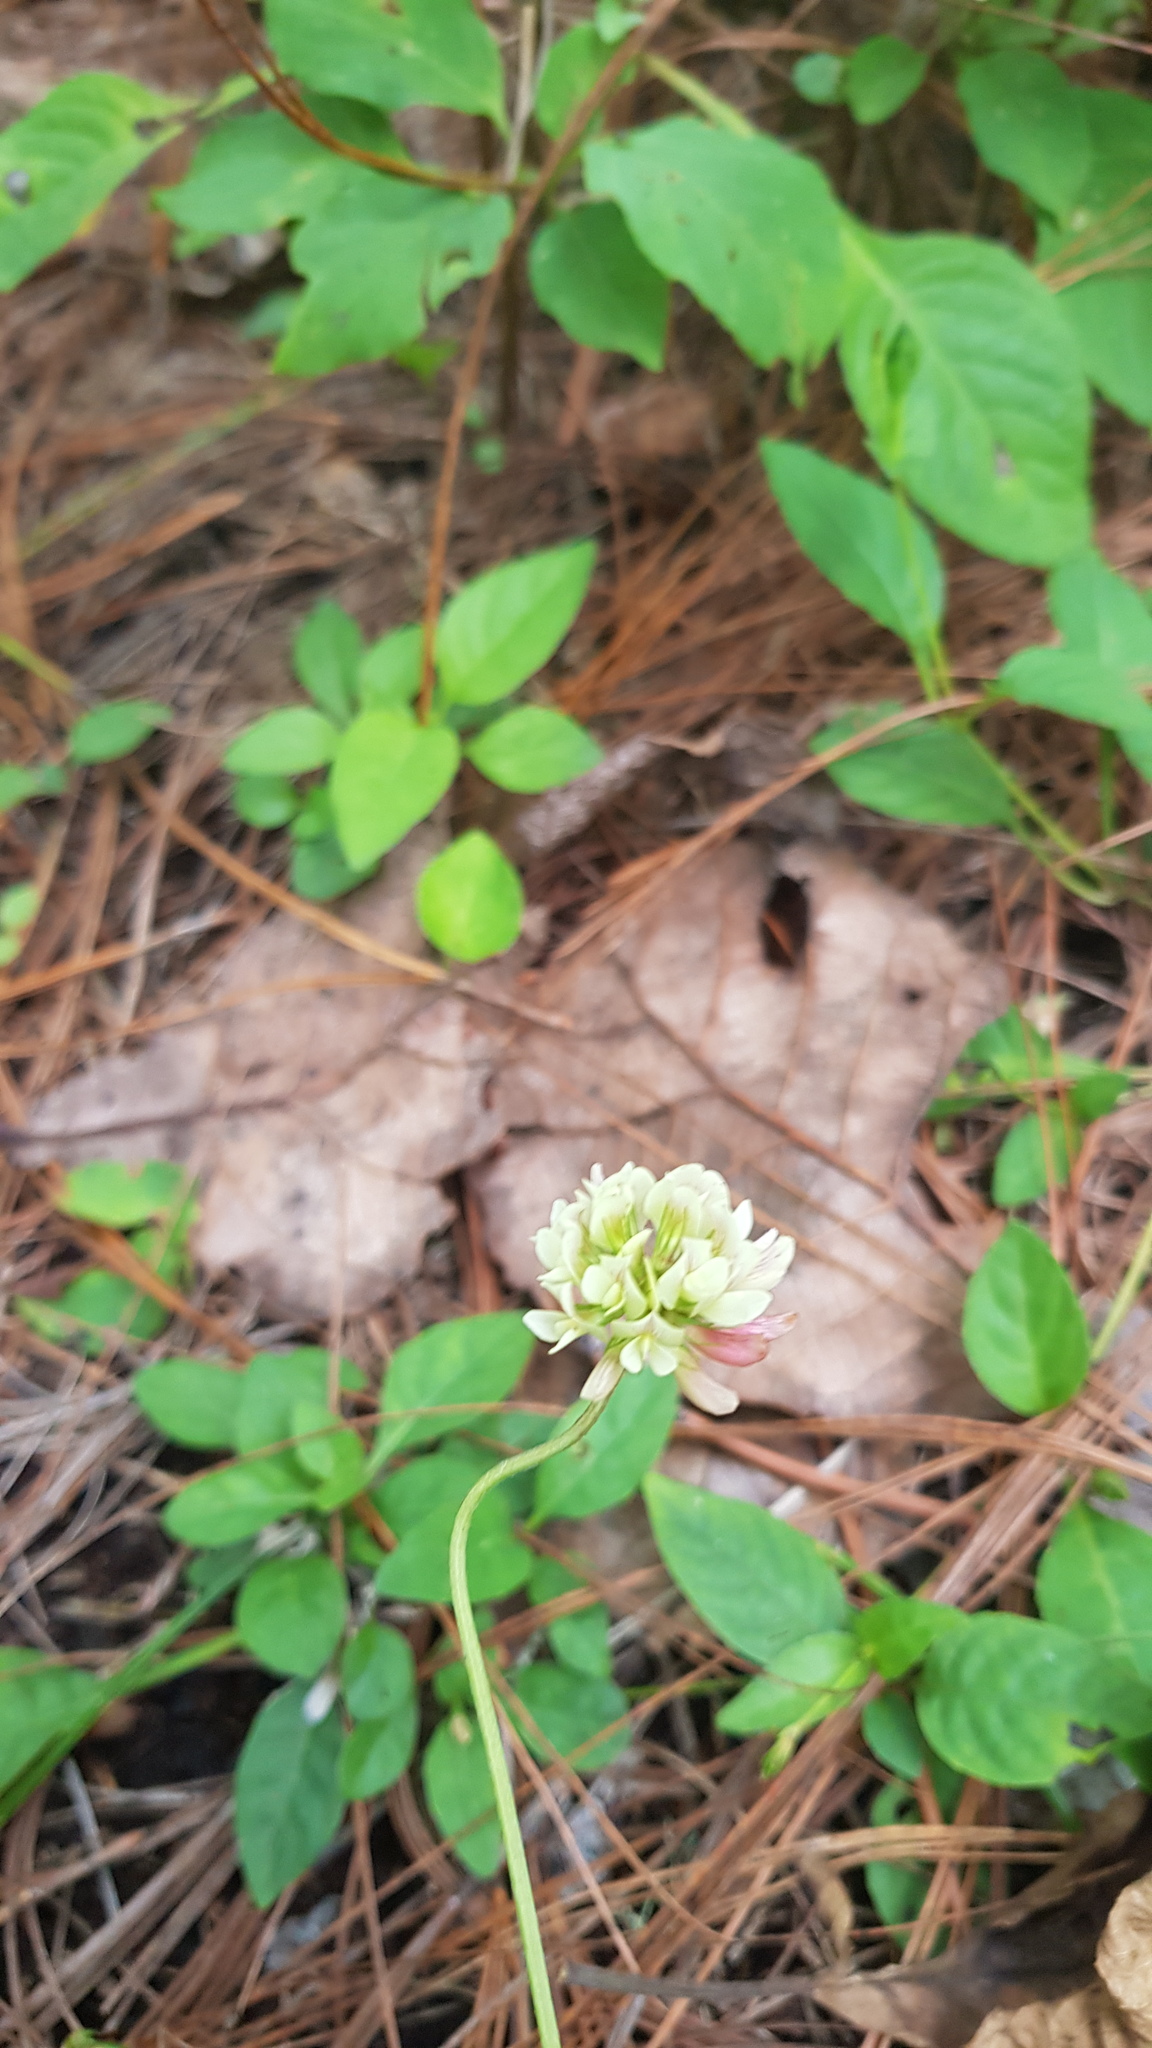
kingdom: Plantae
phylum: Tracheophyta
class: Magnoliopsida
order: Fabales
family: Fabaceae
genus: Trifolium
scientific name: Trifolium amabile
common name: Aztec clover
